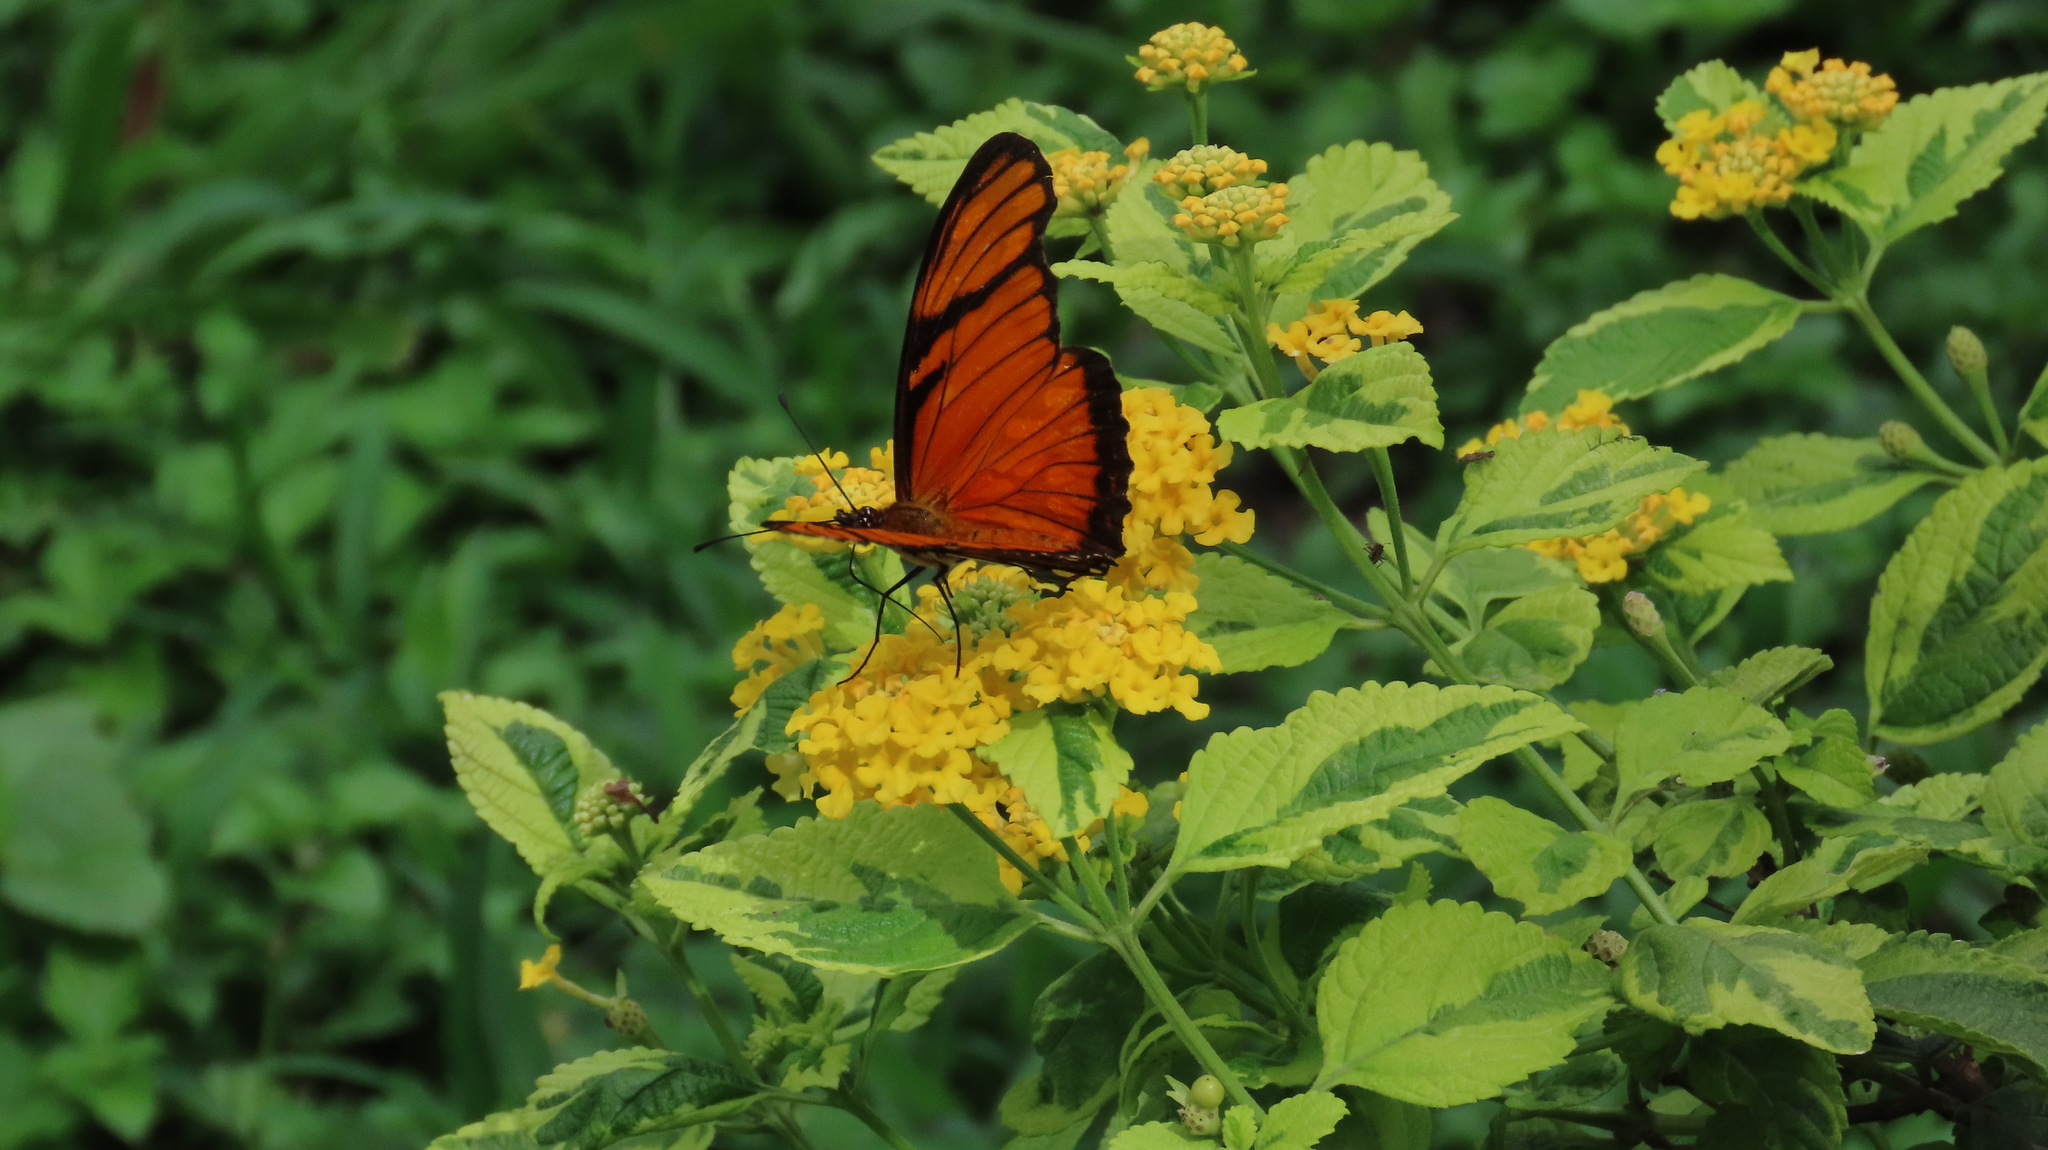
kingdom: Animalia
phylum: Arthropoda
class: Insecta
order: Lepidoptera
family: Nymphalidae
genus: Dione
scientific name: Dione juno
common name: Juno silverspot
